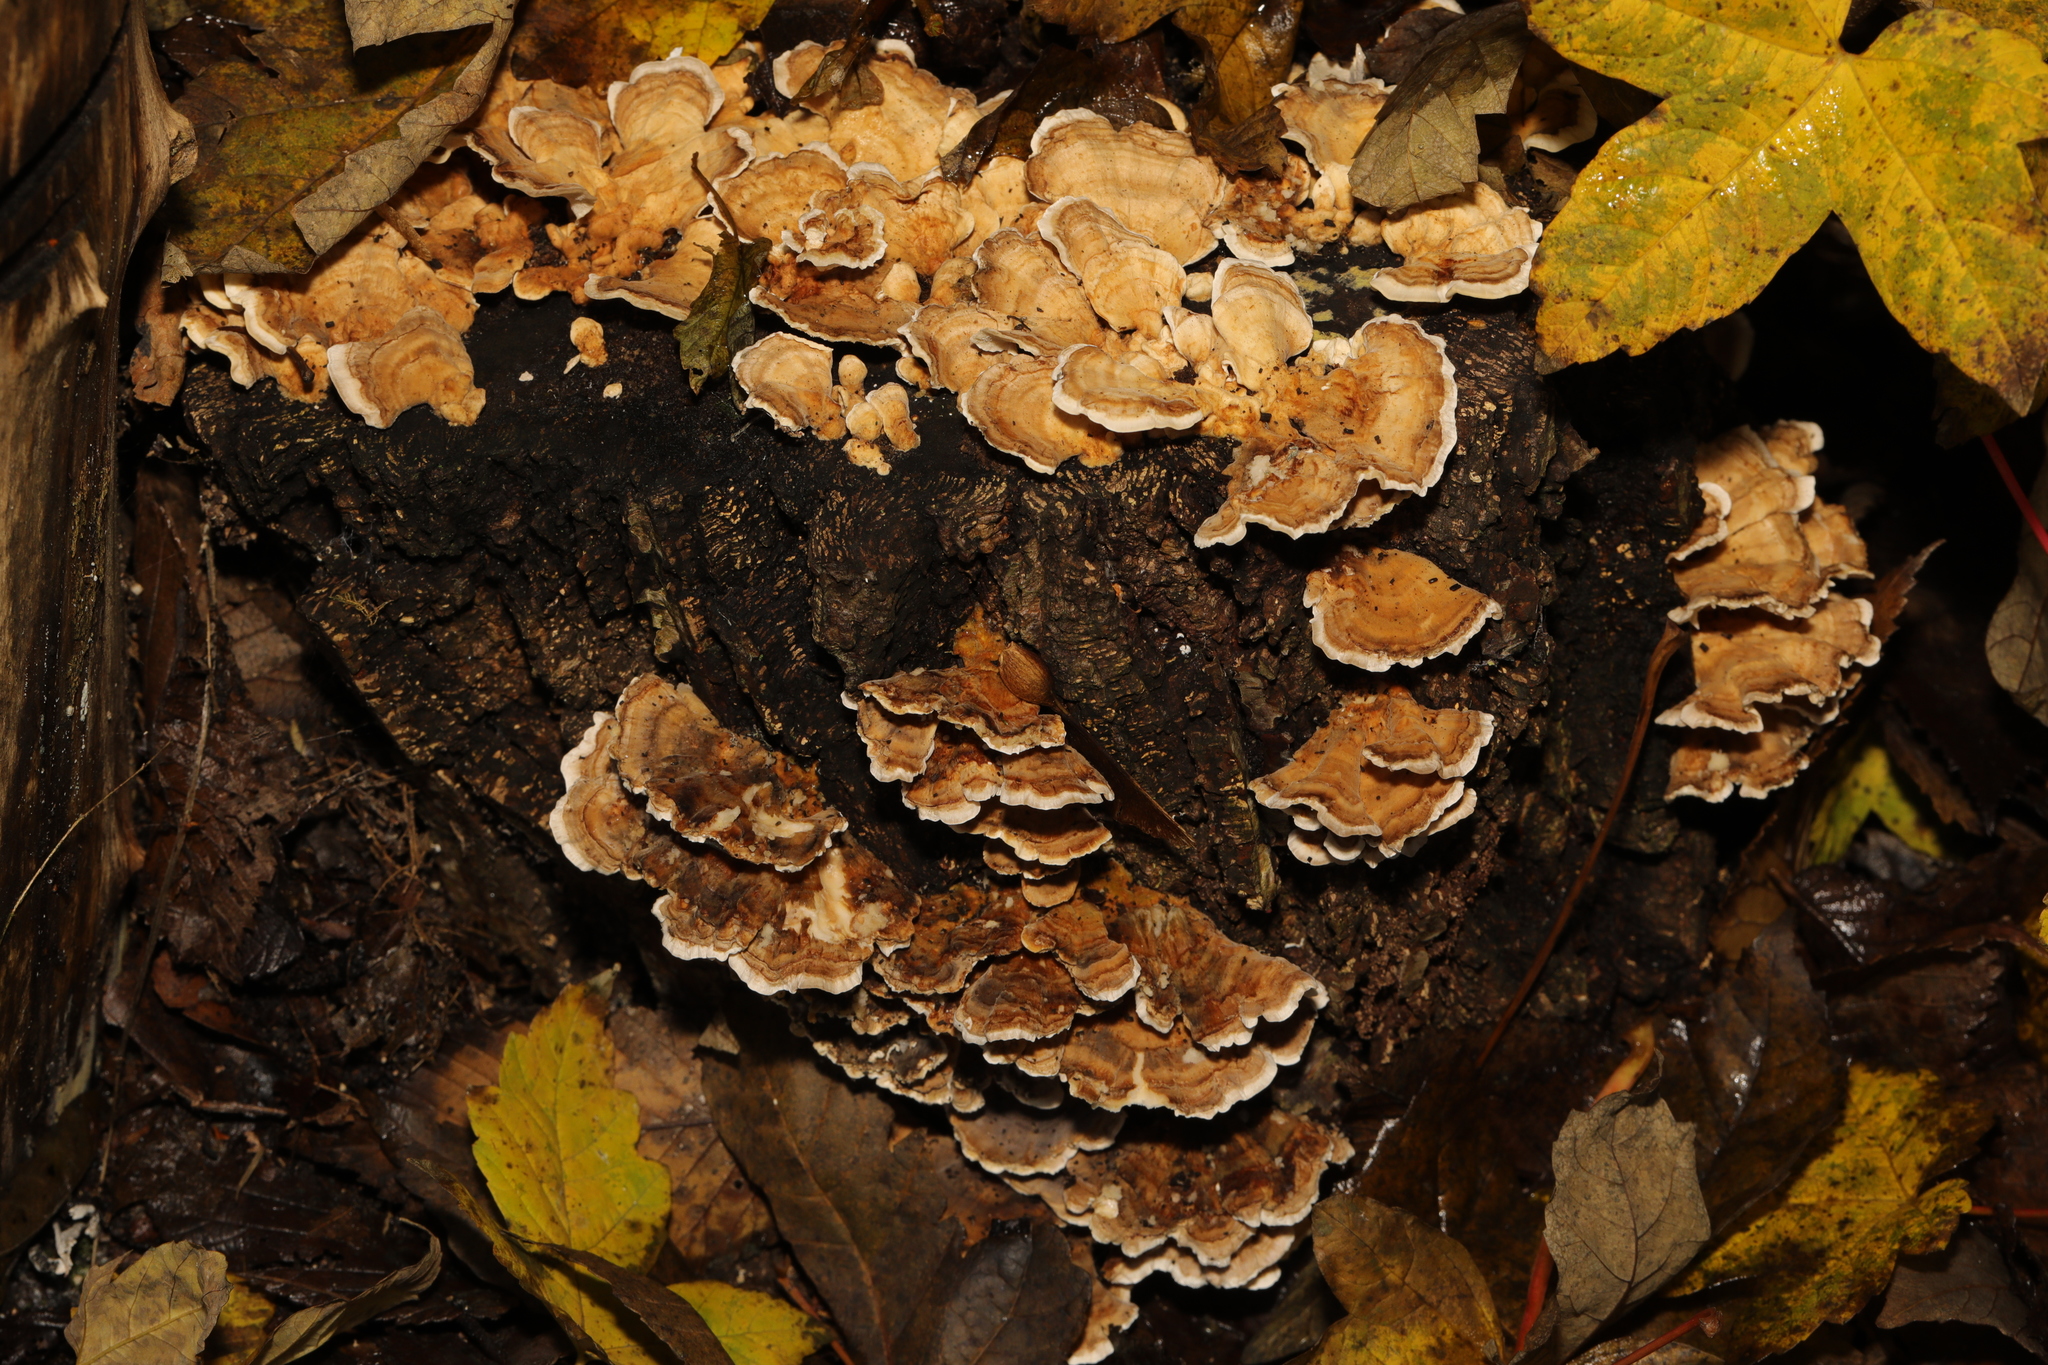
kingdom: Fungi
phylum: Basidiomycota
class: Agaricomycetes
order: Polyporales
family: Polyporaceae
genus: Trametes
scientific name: Trametes versicolor
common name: Turkeytail
